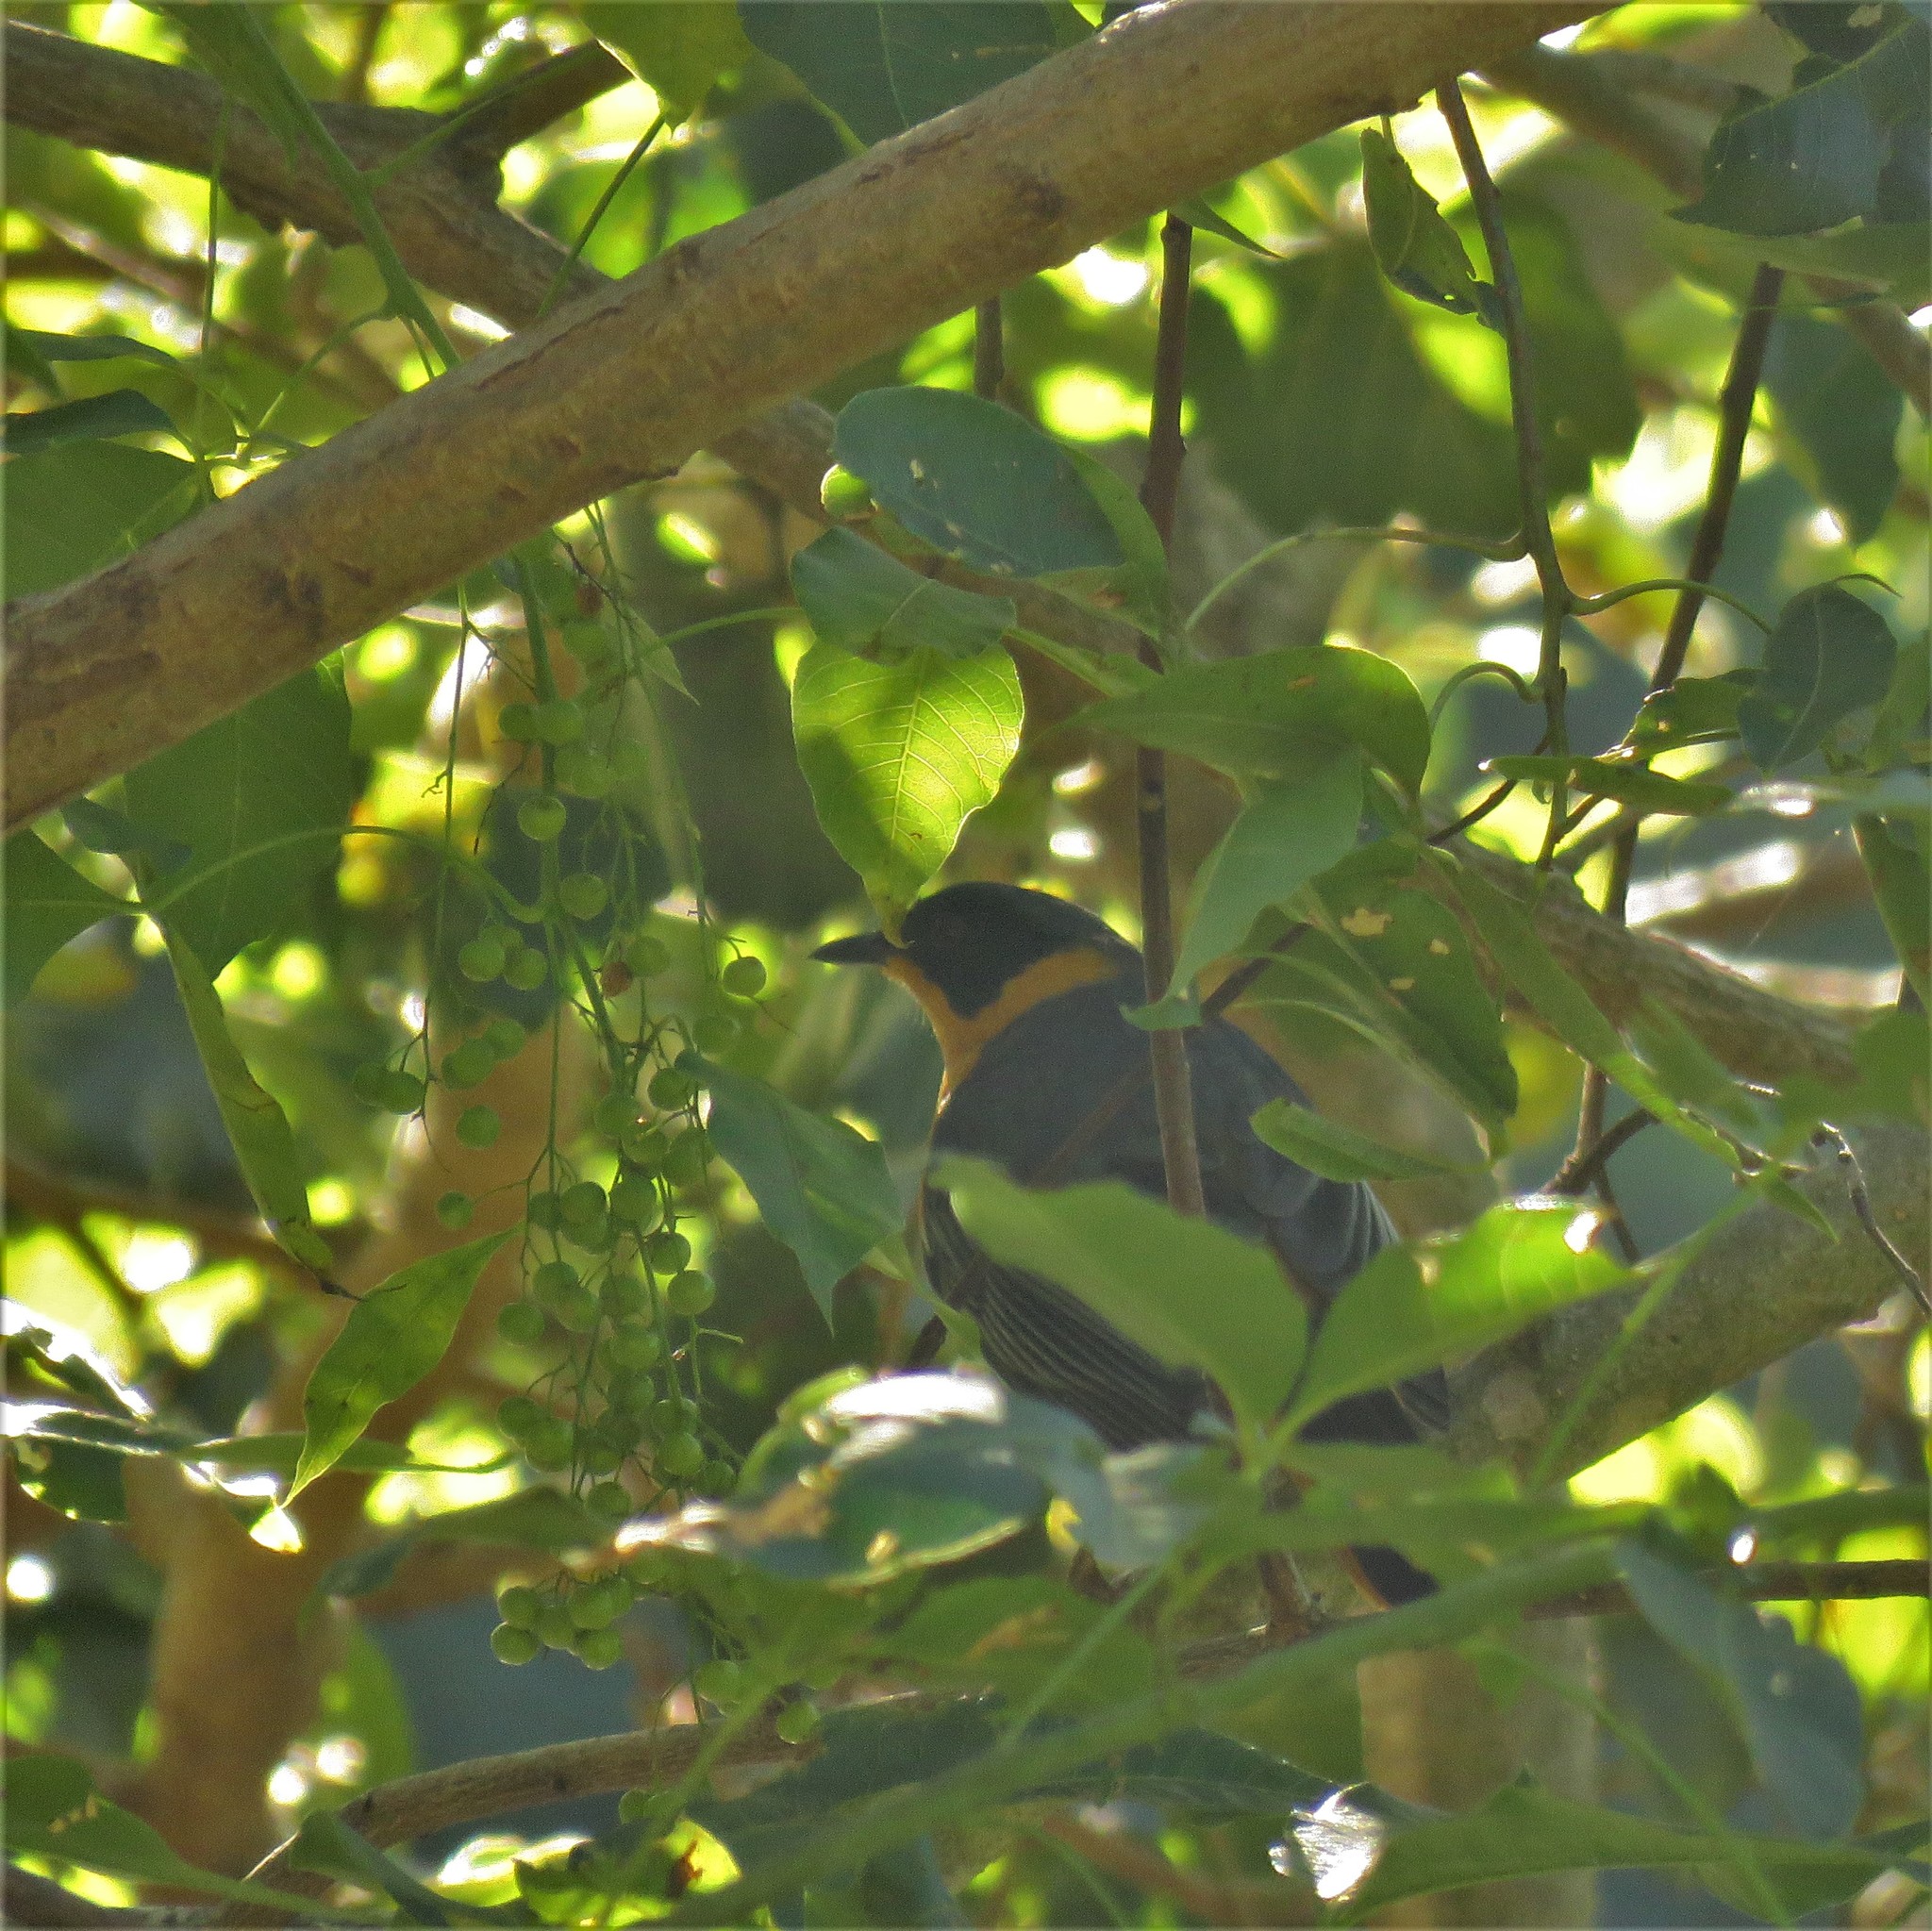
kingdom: Animalia
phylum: Chordata
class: Aves
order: Passeriformes
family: Muscicapidae
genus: Cossypha
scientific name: Cossypha dichroa
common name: Chorister robin-chat
